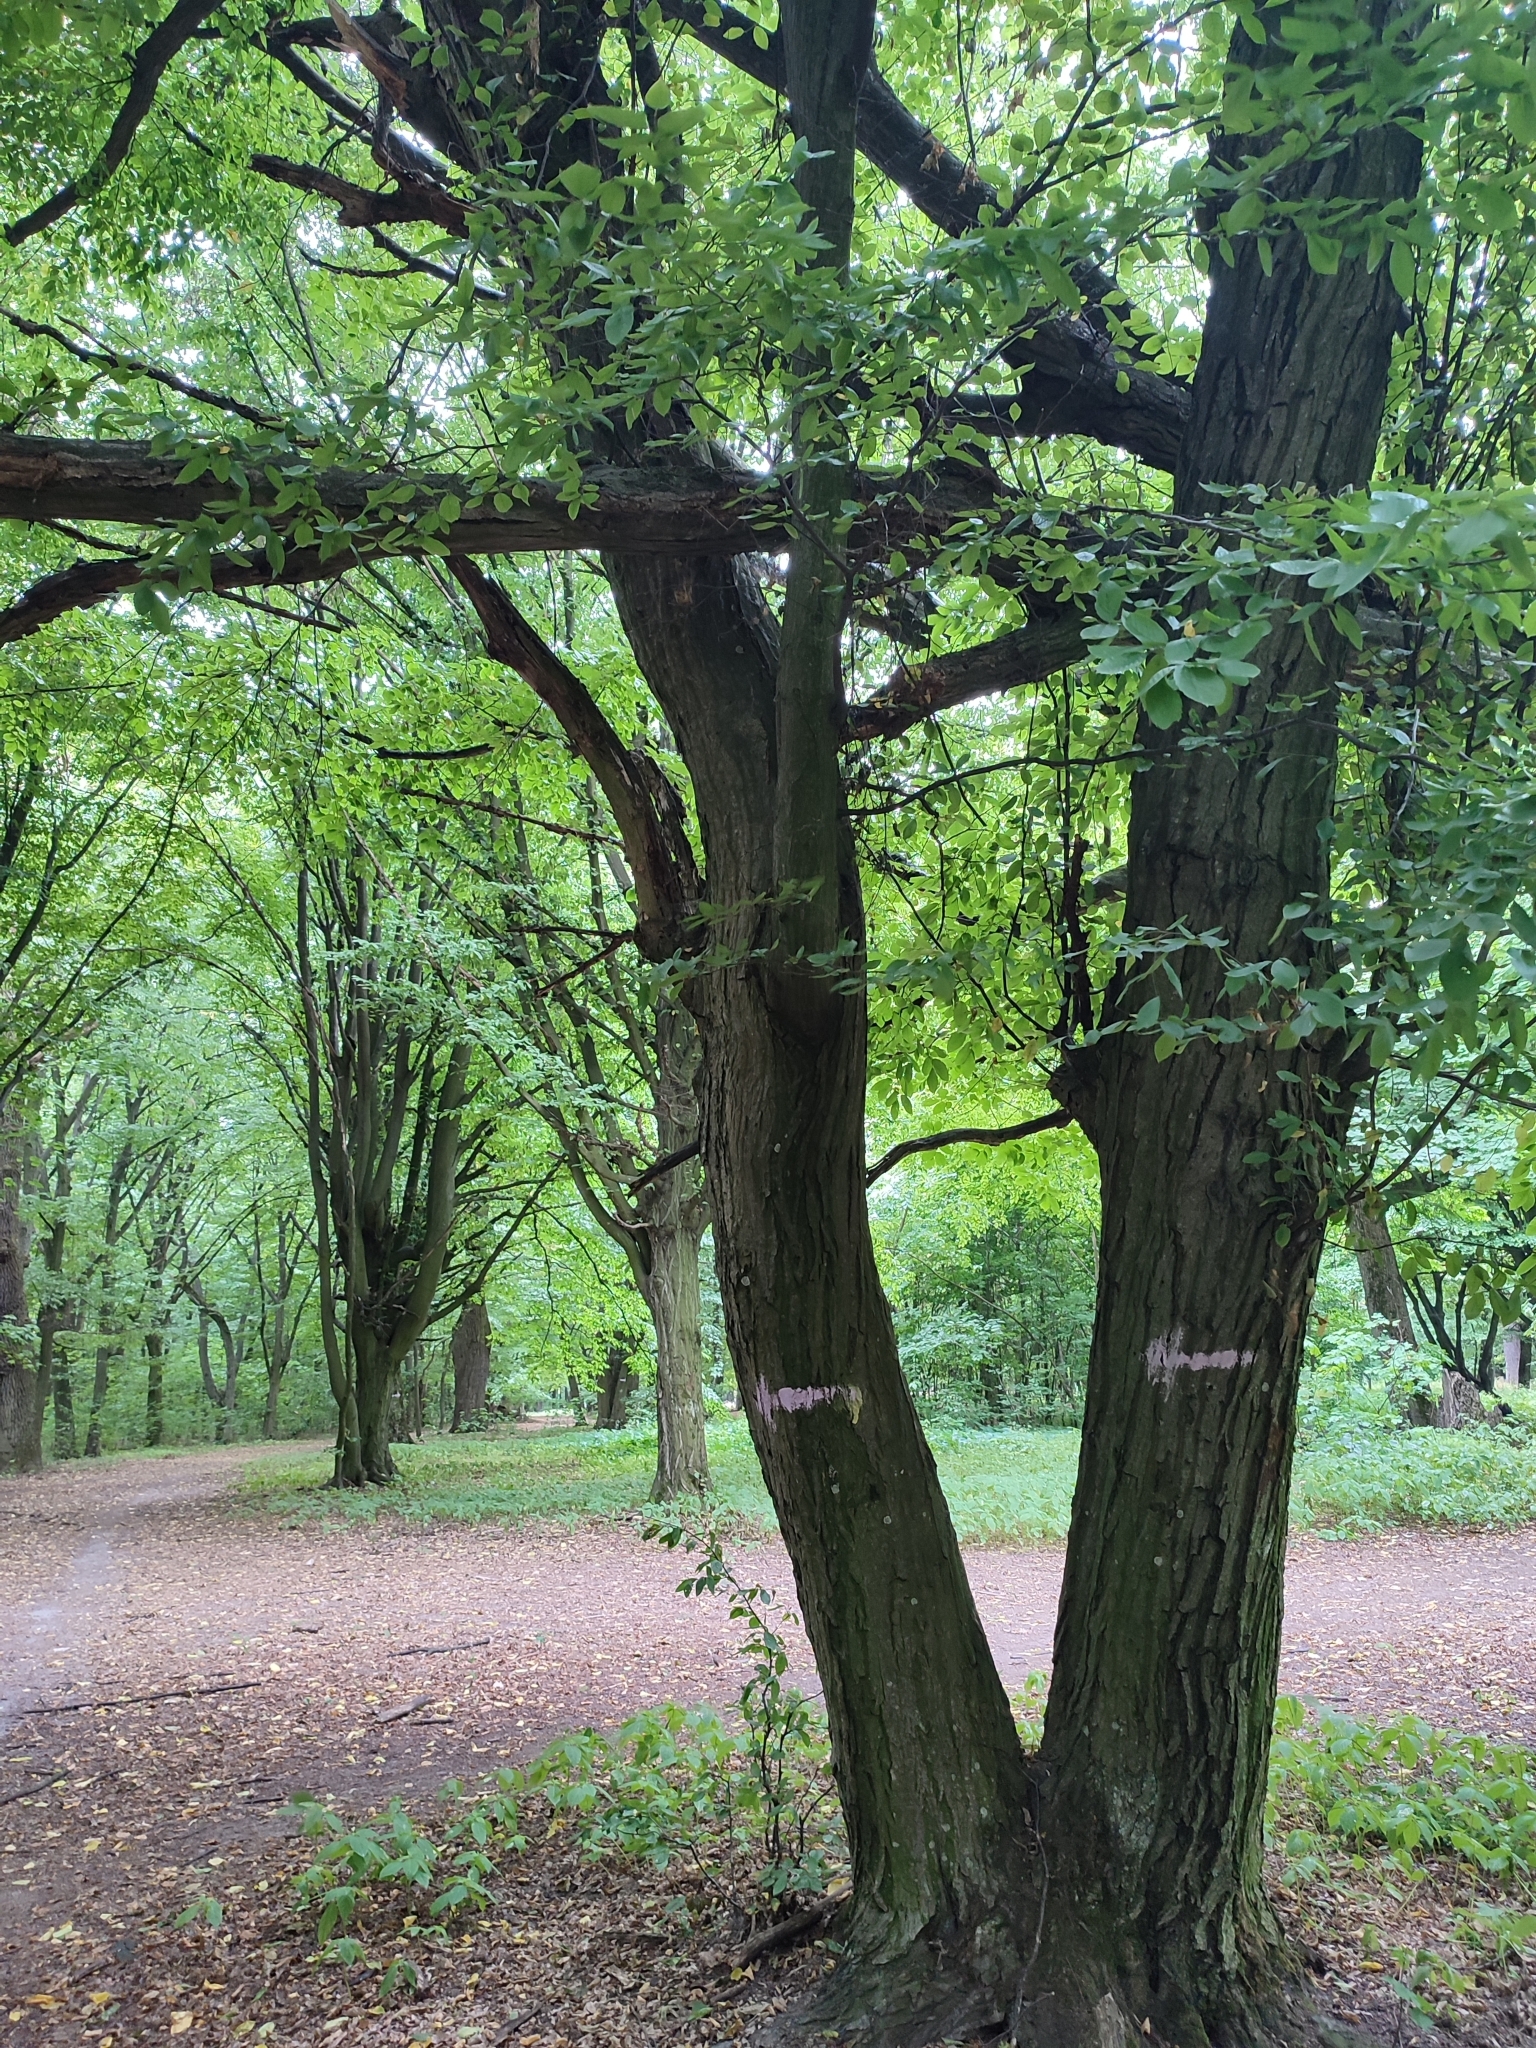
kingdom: Plantae
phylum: Tracheophyta
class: Magnoliopsida
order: Fagales
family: Betulaceae
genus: Carpinus
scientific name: Carpinus betulus
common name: Hornbeam
